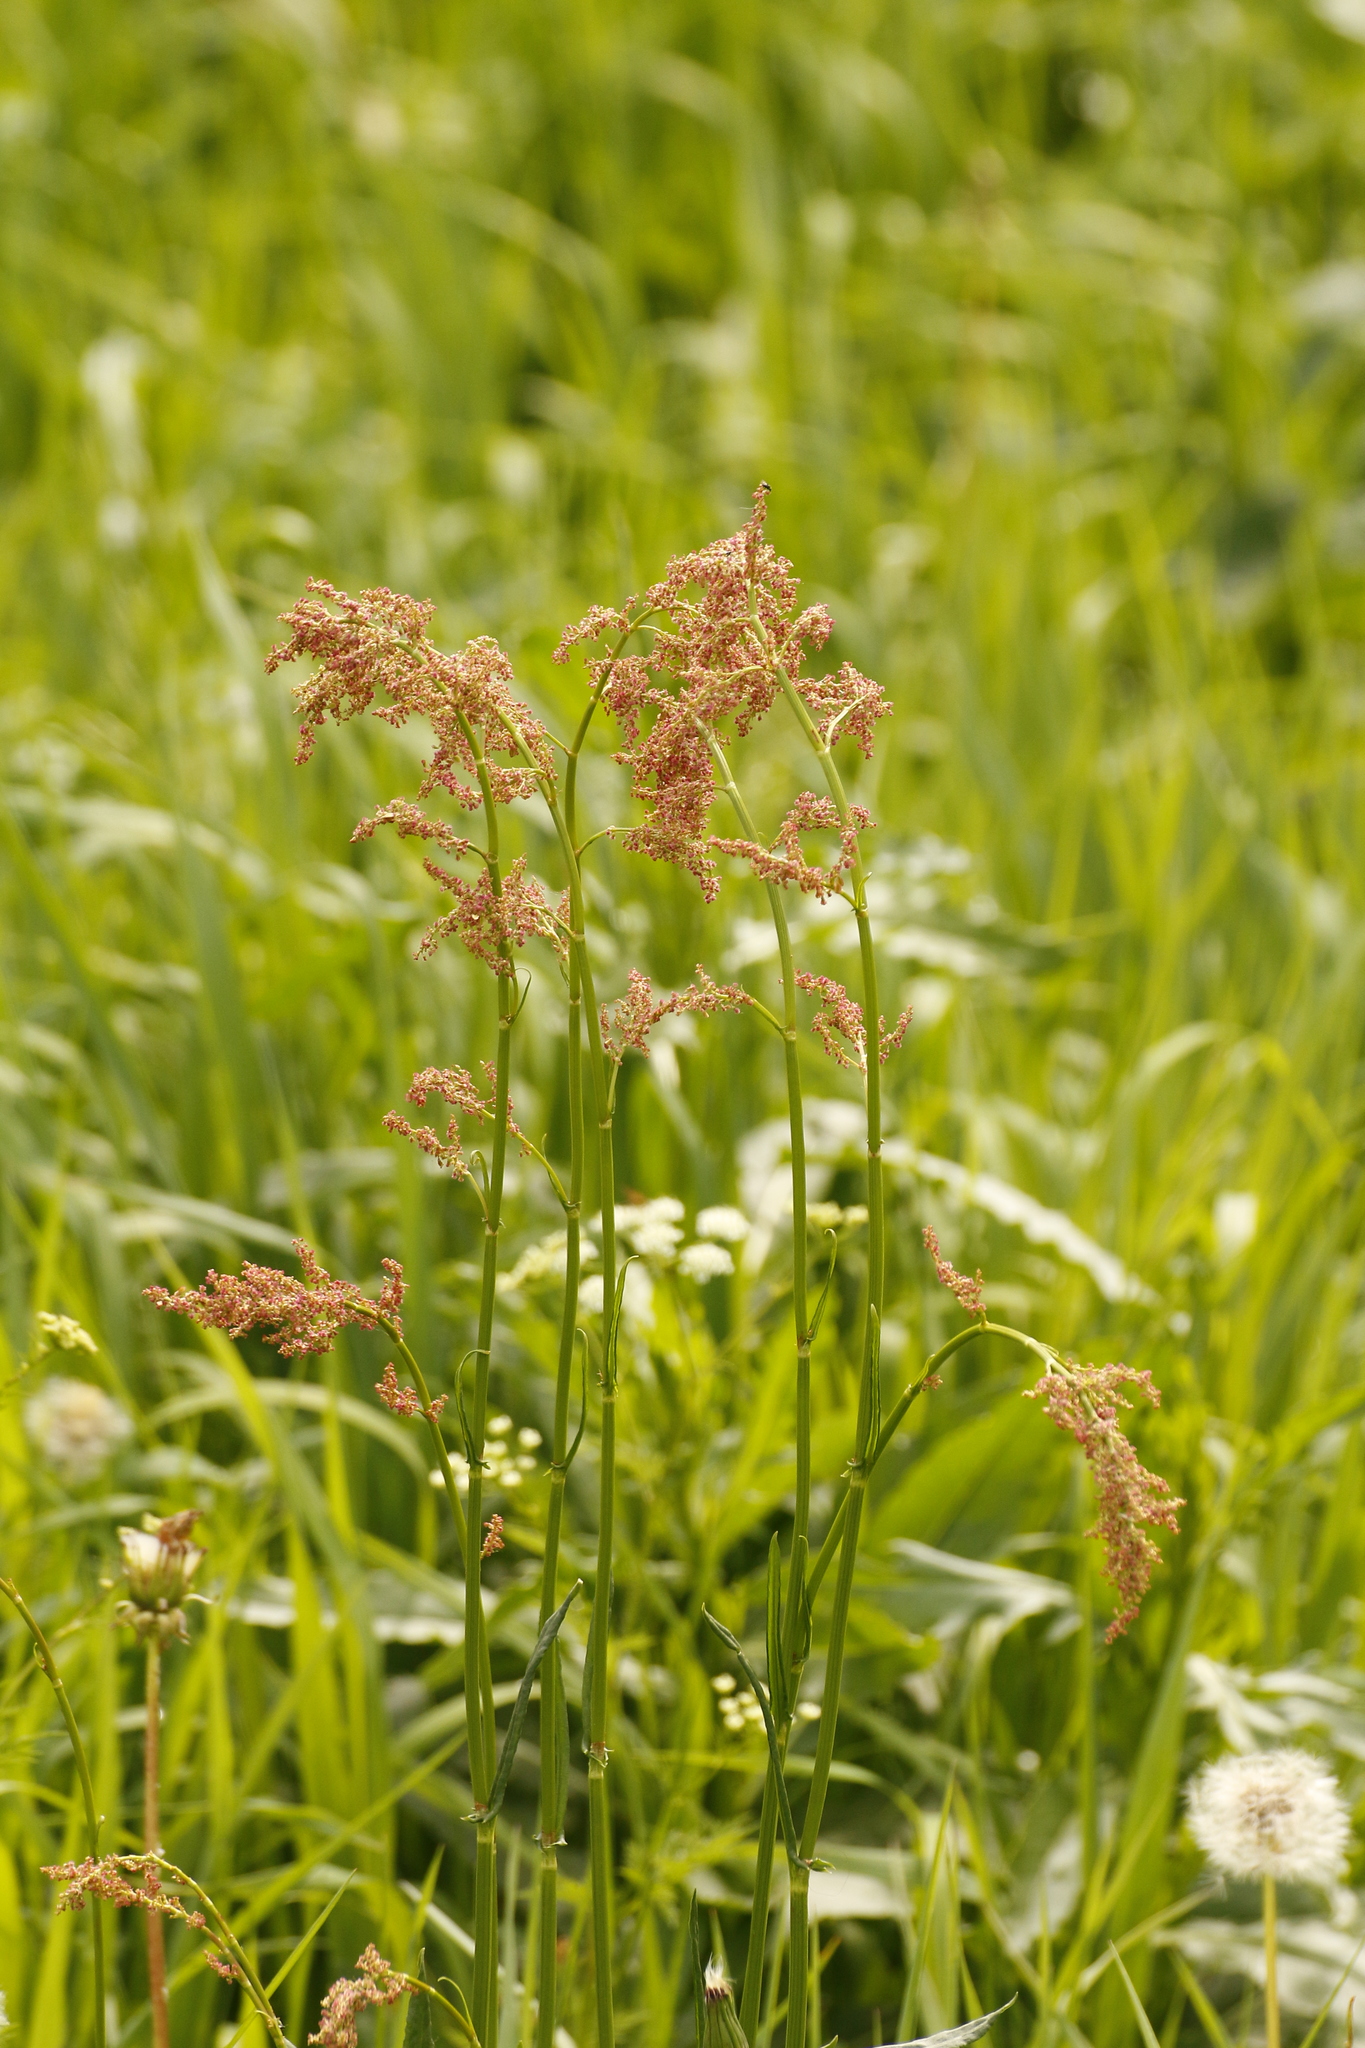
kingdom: Plantae
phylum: Tracheophyta
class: Magnoliopsida
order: Caryophyllales
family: Polygonaceae
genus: Rumex
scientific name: Rumex thyrsiflorus
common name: Garden sorrel
